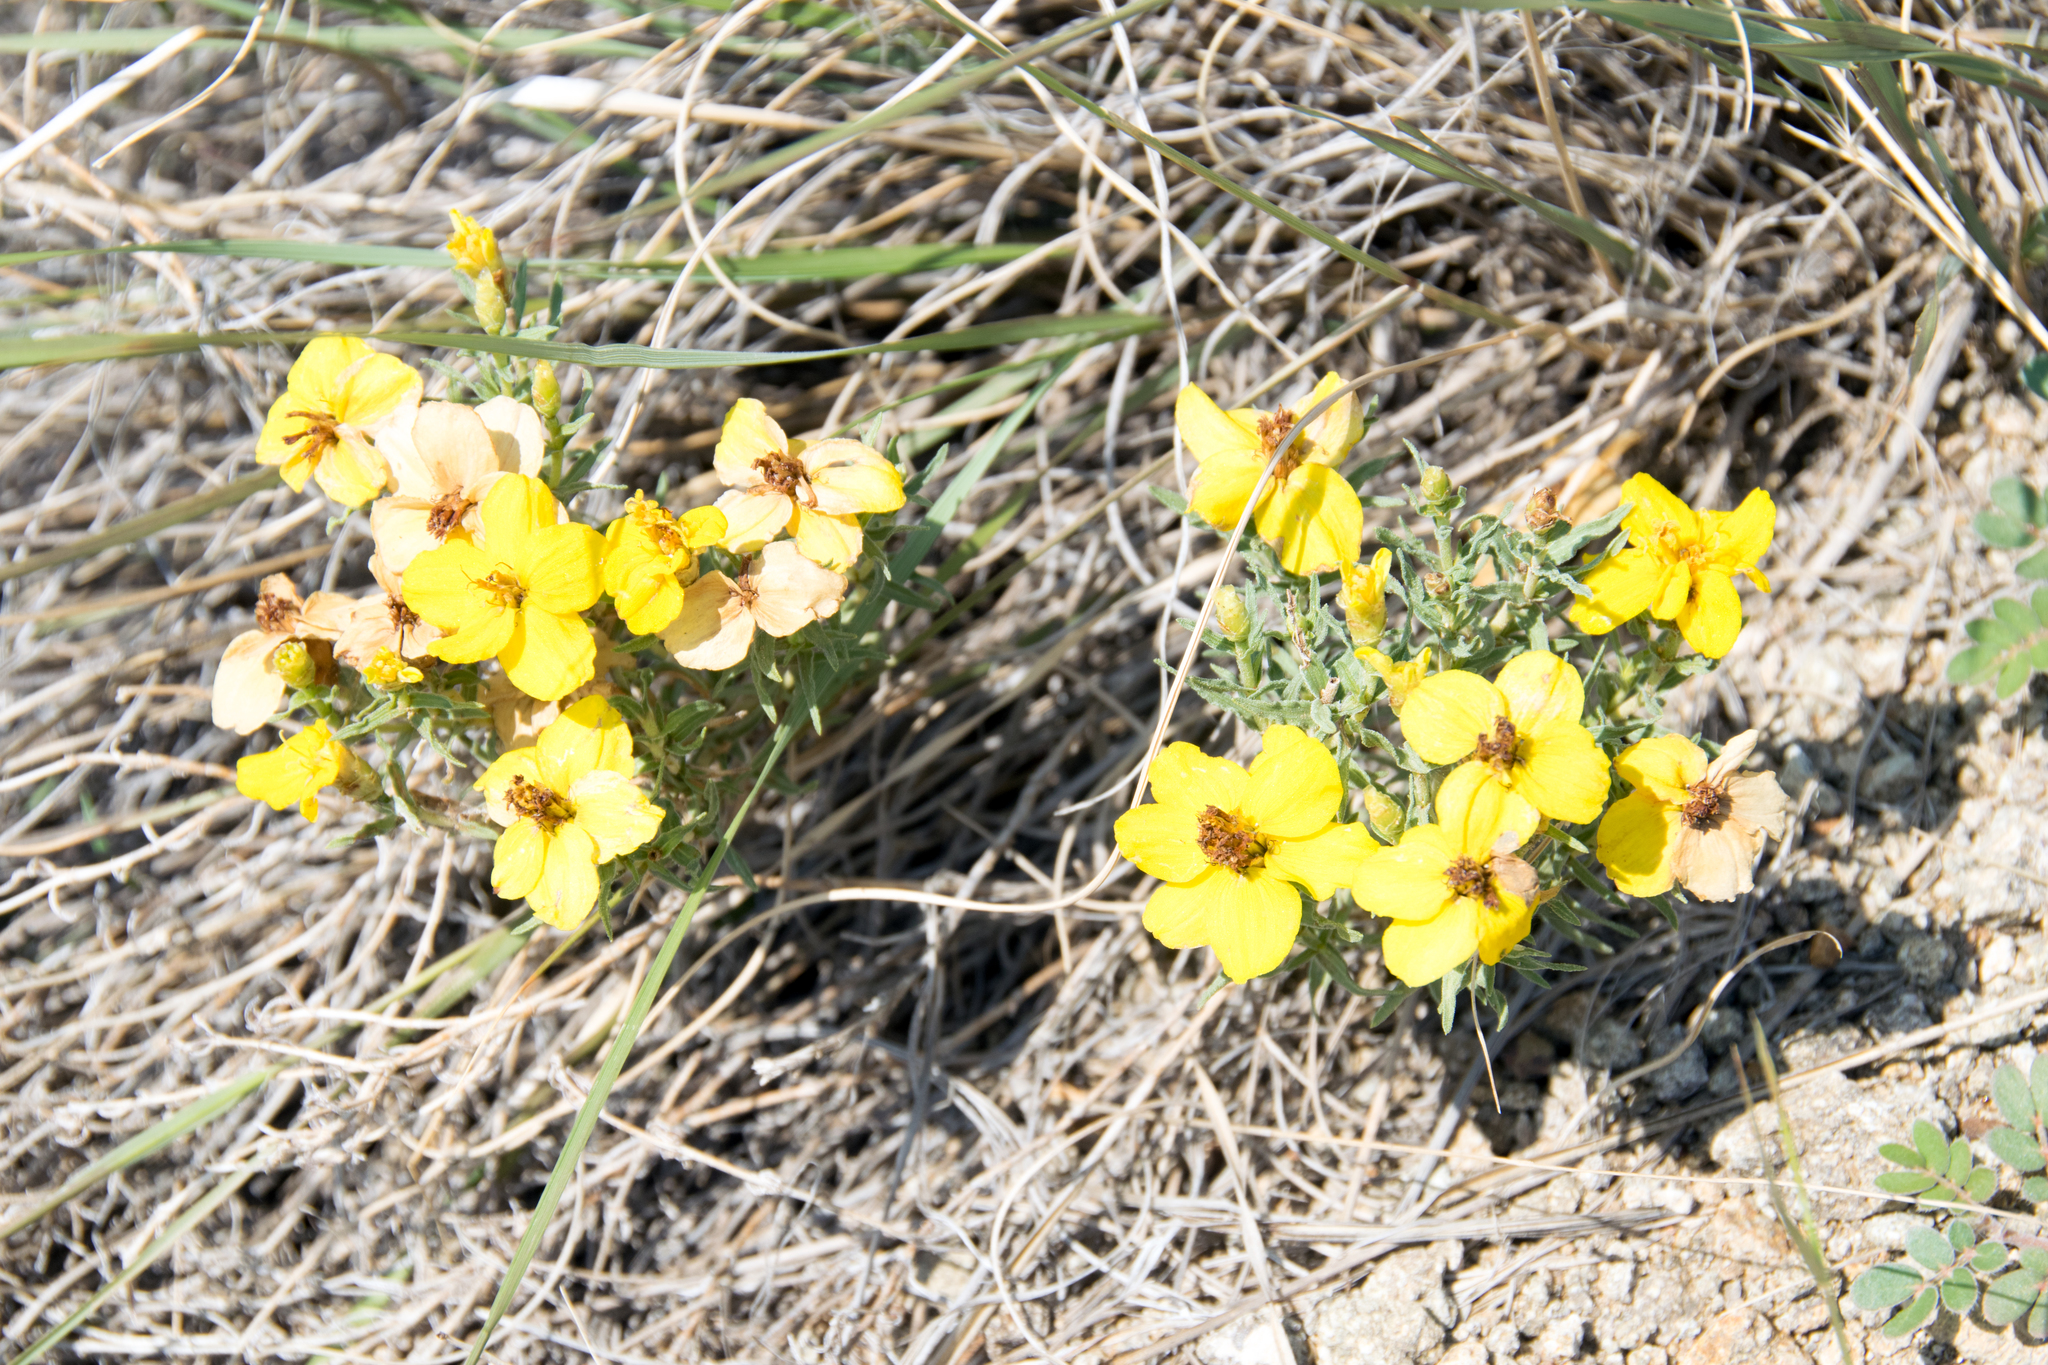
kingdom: Plantae
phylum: Tracheophyta
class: Magnoliopsida
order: Asterales
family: Asteraceae
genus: Zinnia
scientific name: Zinnia grandiflora
